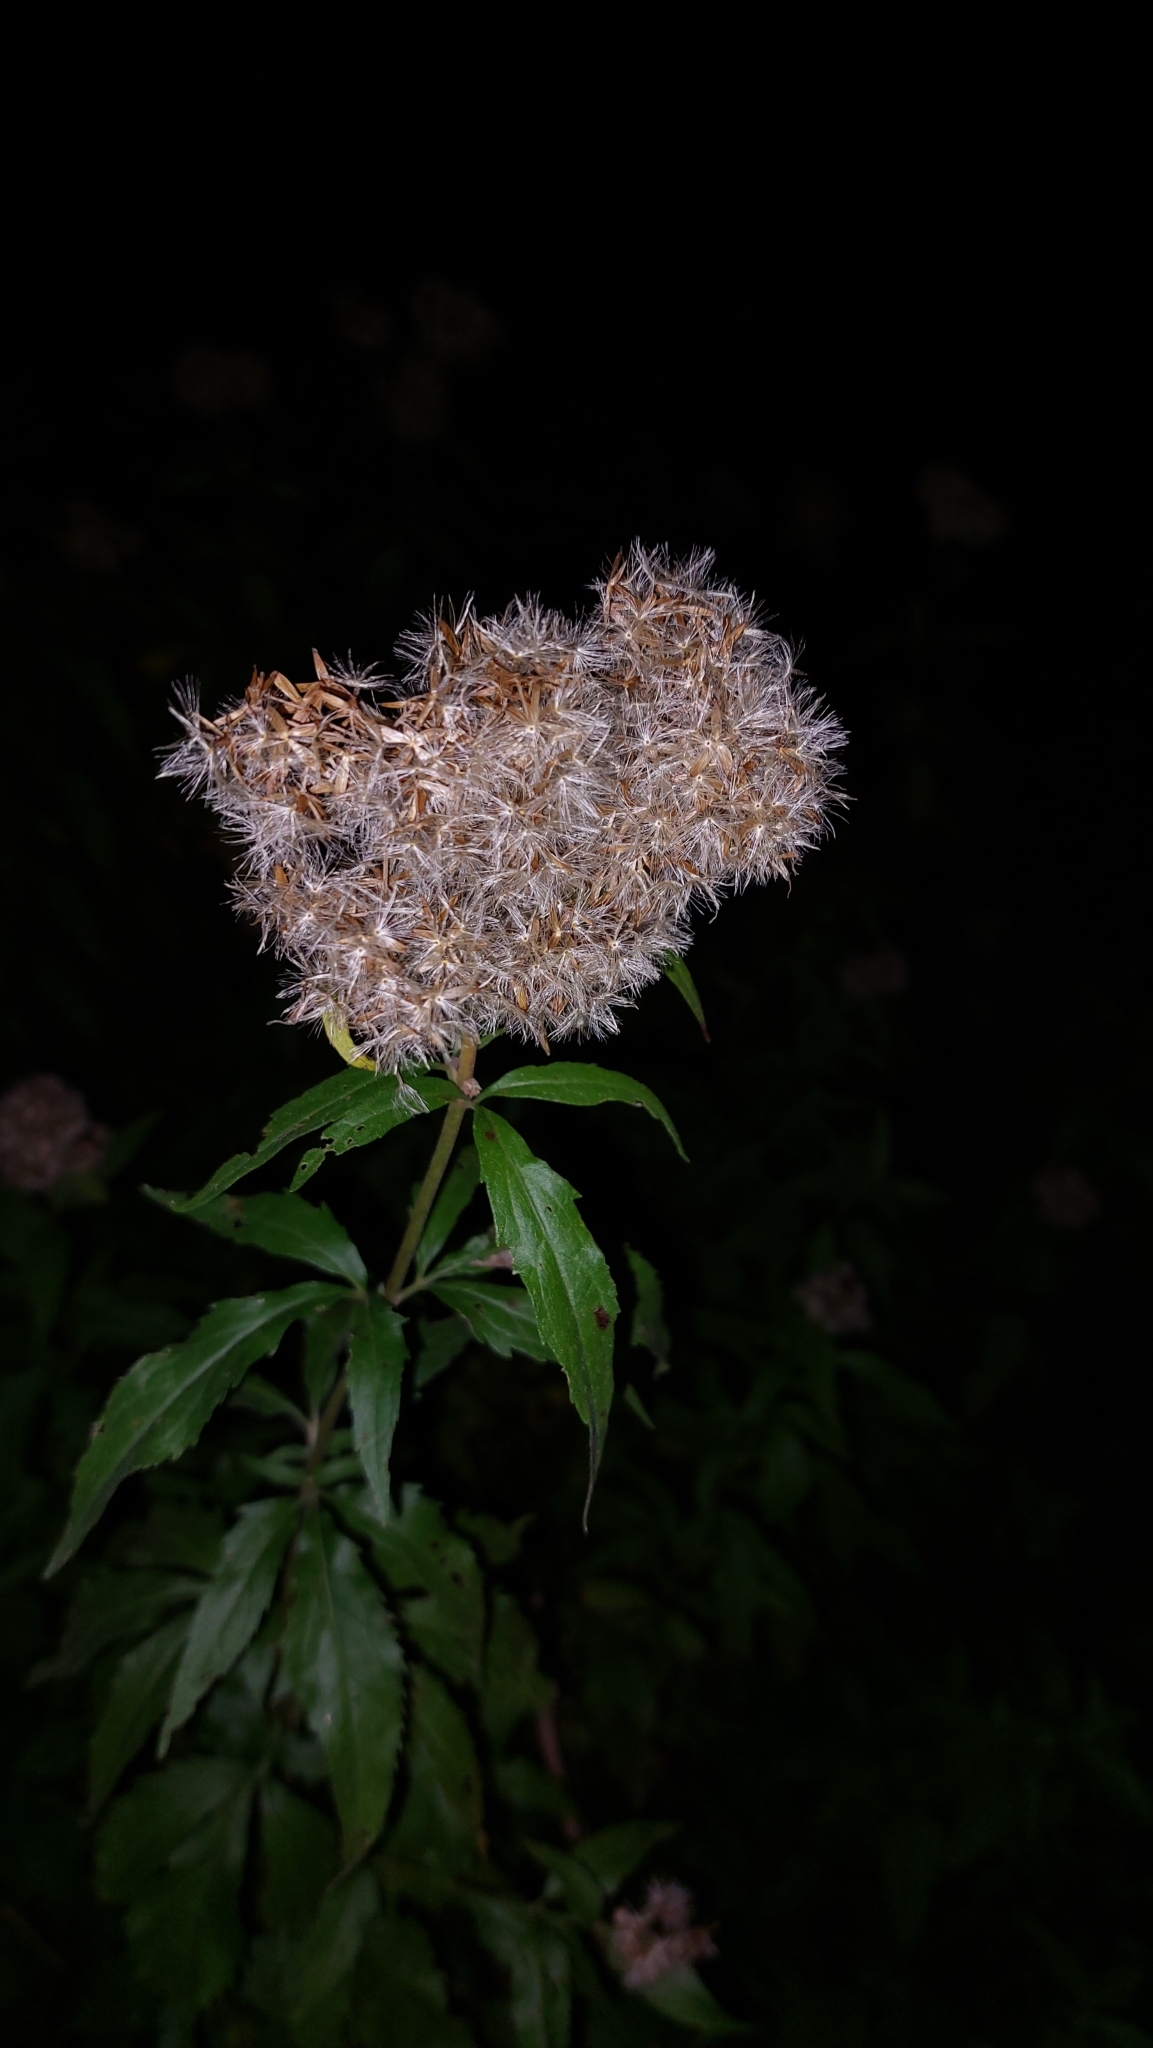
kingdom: Plantae
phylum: Tracheophyta
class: Magnoliopsida
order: Asterales
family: Asteraceae
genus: Eupatorium
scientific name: Eupatorium cannabinum
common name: Hemp-agrimony
